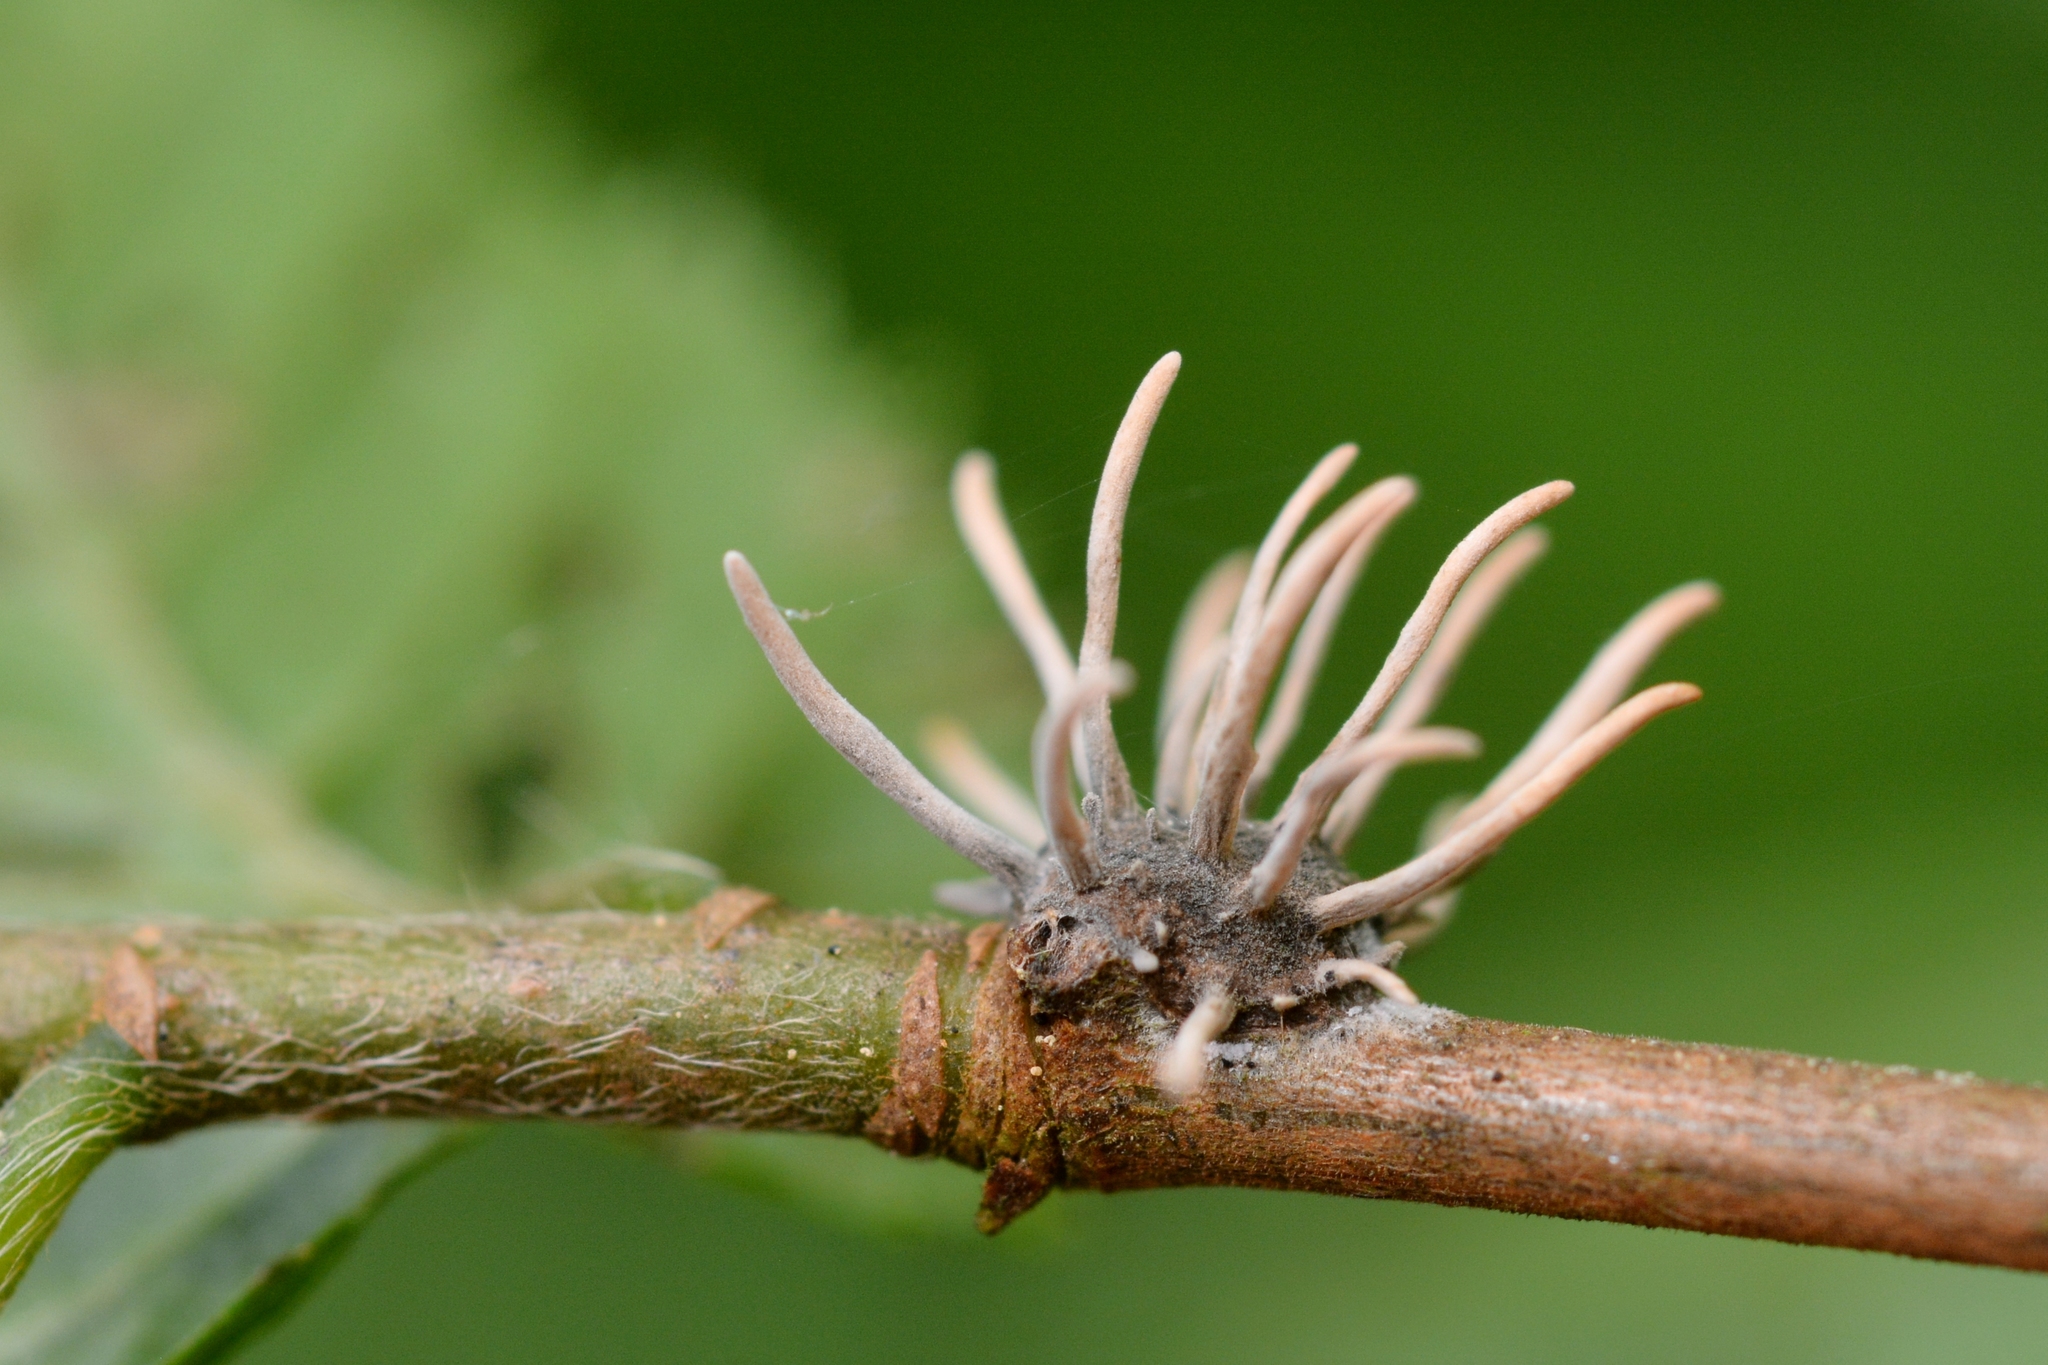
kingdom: Fungi
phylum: Ascomycota
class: Sordariomycetes
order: Hypocreales
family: Ophiocordycipitaceae
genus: Ophiocordyceps
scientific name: Ophiocordyceps clavulata
